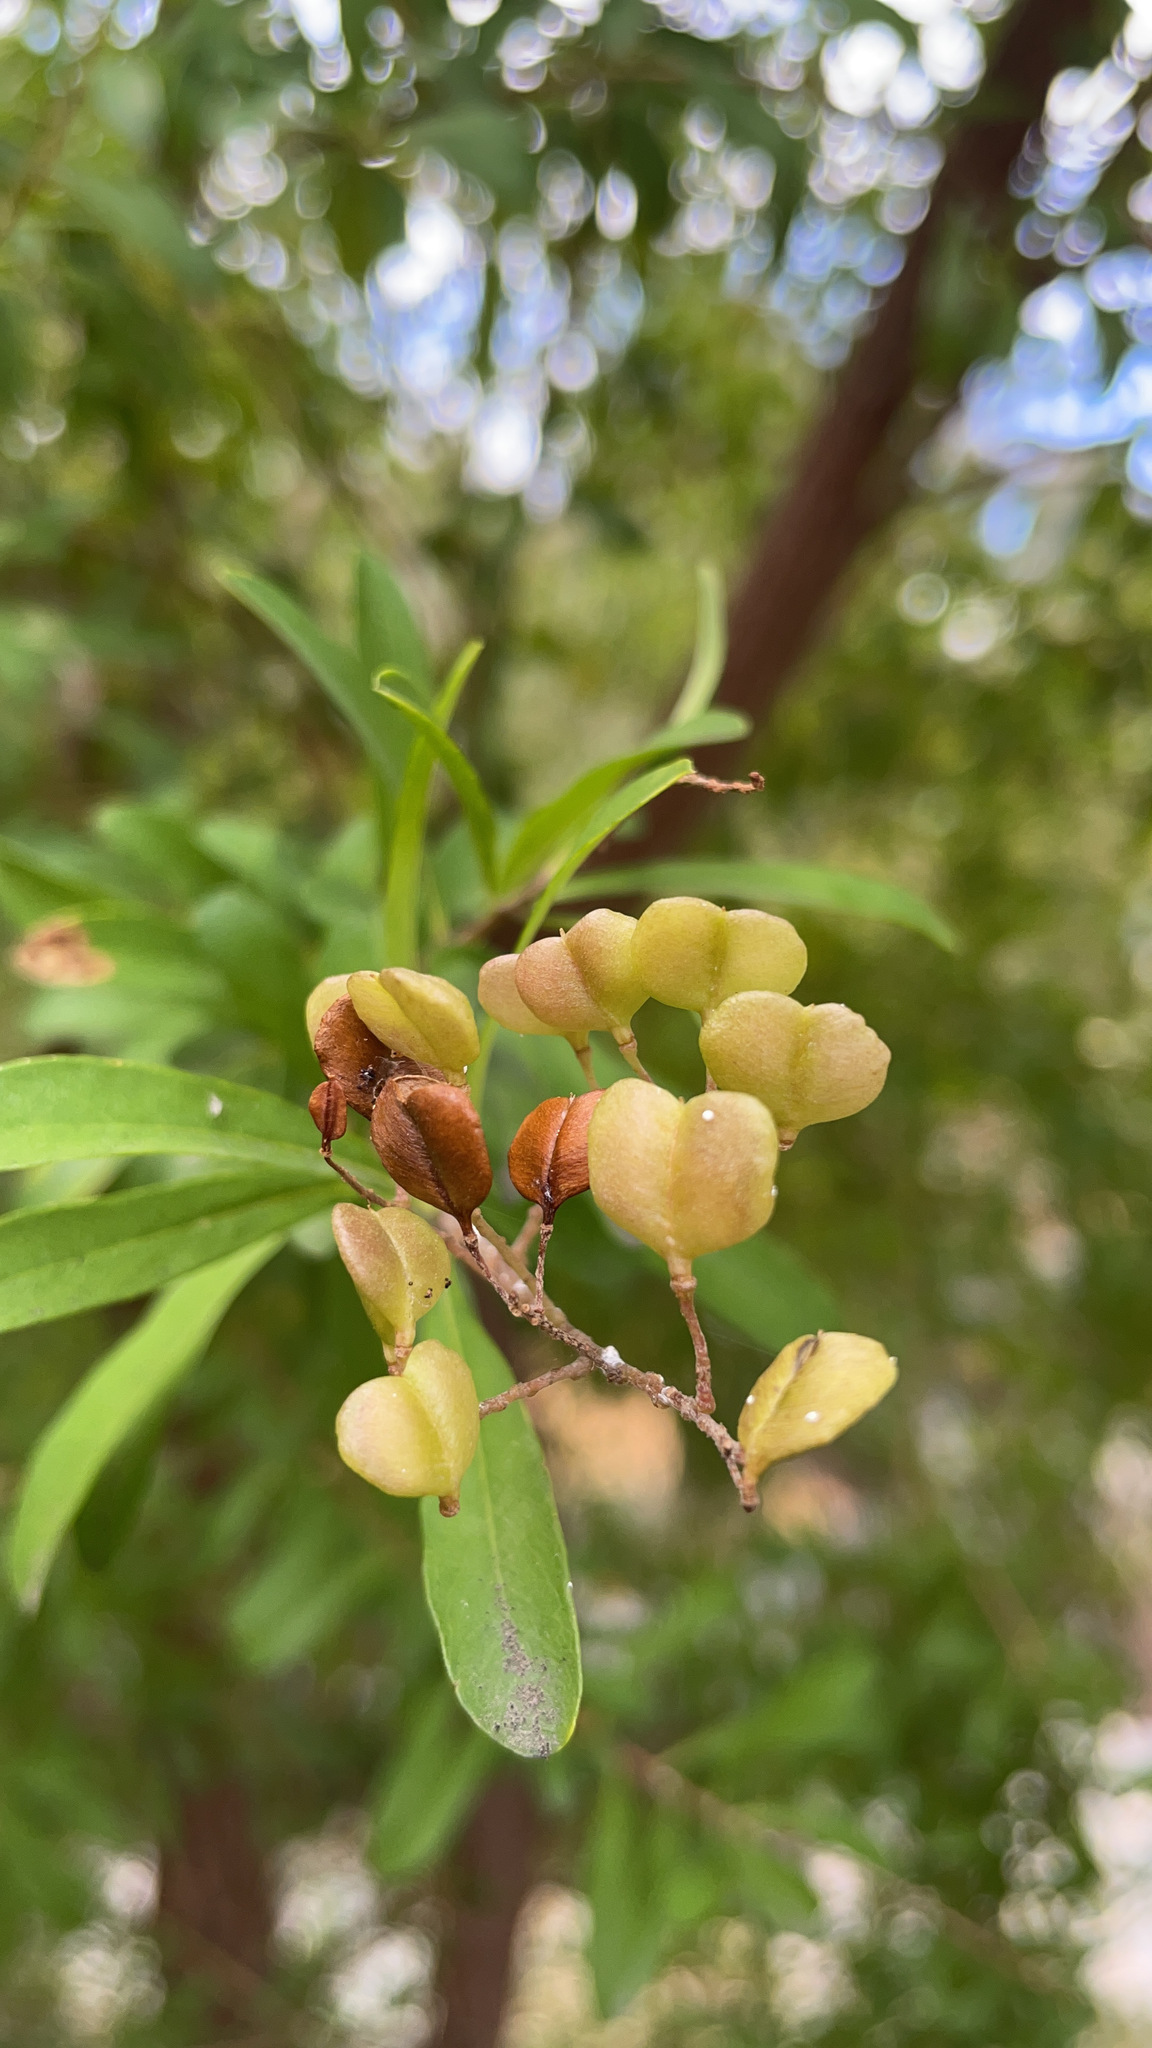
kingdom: Plantae
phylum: Tracheophyta
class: Magnoliopsida
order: Apiales
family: Pittosporaceae
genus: Bursaria
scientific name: Bursaria spinosa
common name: Australian blackthorn
